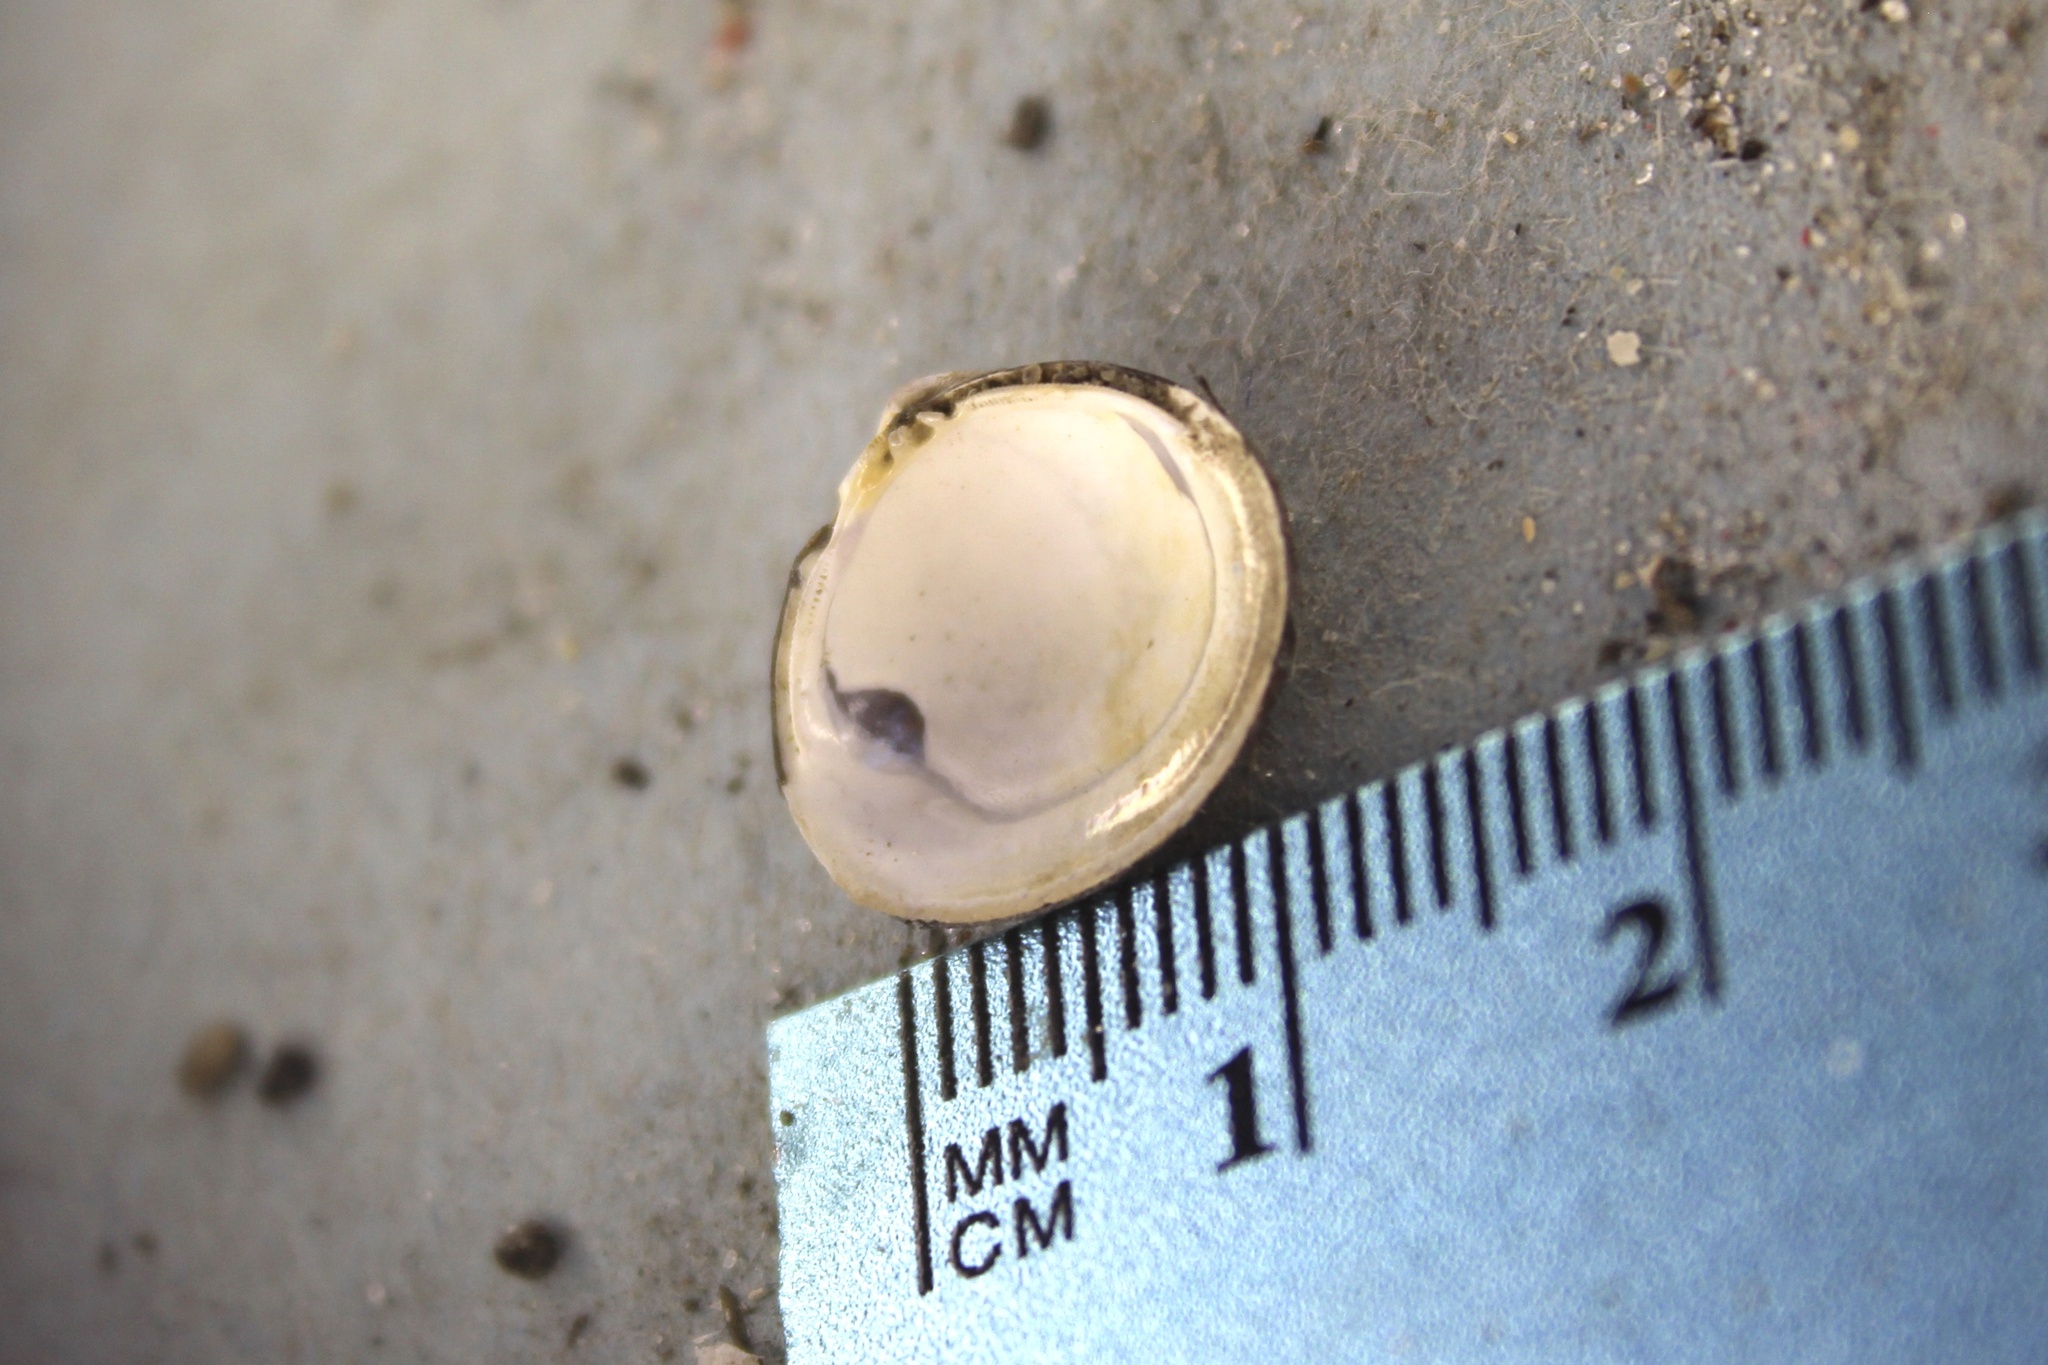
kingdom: Animalia
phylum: Mollusca
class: Bivalvia
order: Venerida
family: Cyrenidae
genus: Corbicula
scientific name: Corbicula fluminea
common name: Asian clam
